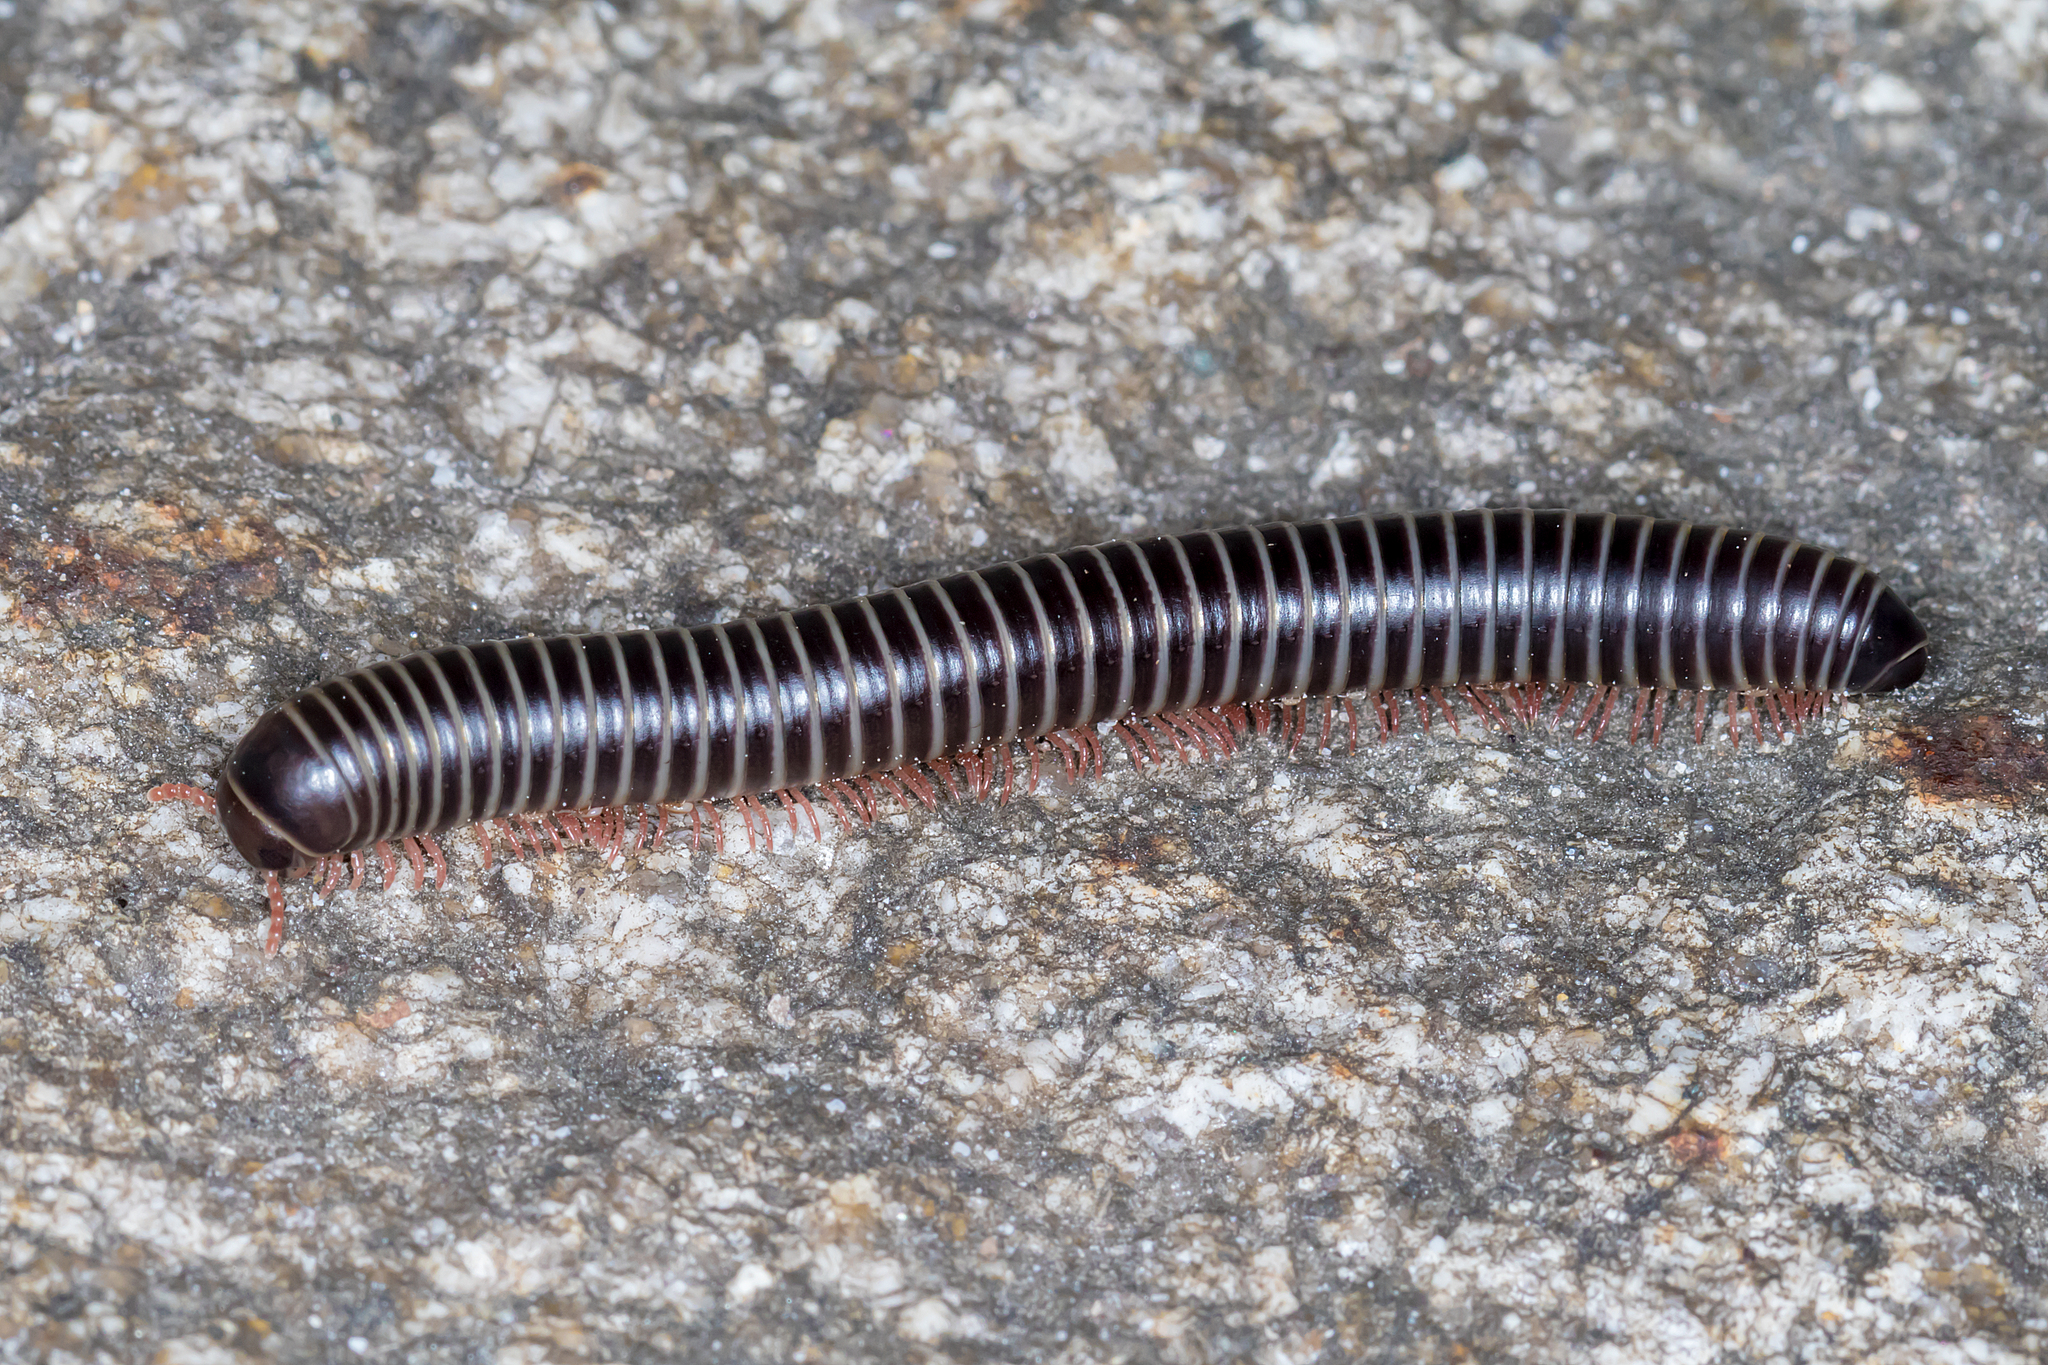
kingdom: Animalia
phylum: Arthropoda
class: Diplopoda
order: Spirobolida
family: Rhinocricidae
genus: Australocricus
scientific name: Australocricus sennae
